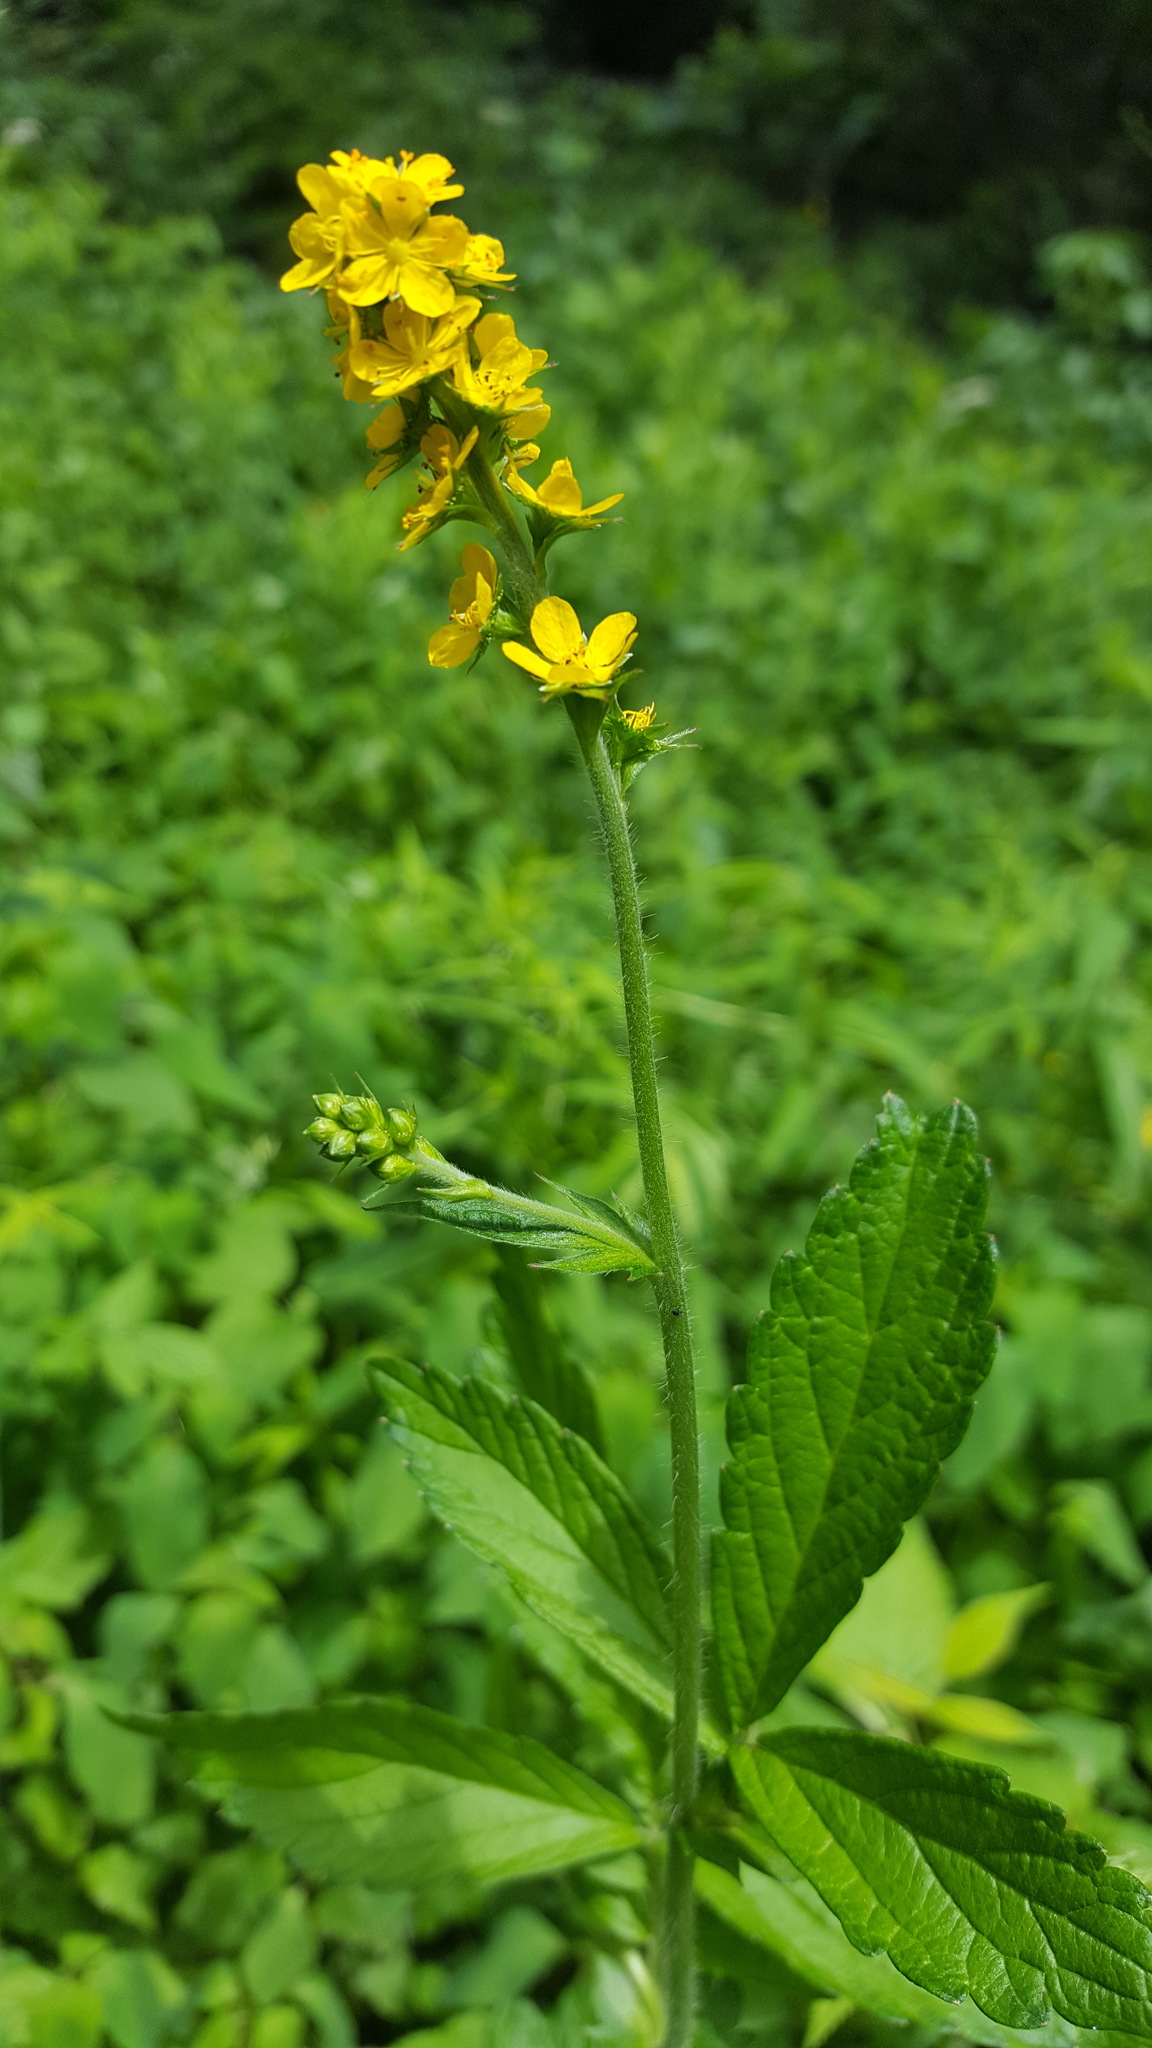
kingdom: Plantae
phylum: Tracheophyta
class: Magnoliopsida
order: Rosales
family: Rosaceae
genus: Agrimonia
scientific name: Agrimonia gryposepala
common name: Common agrimony
